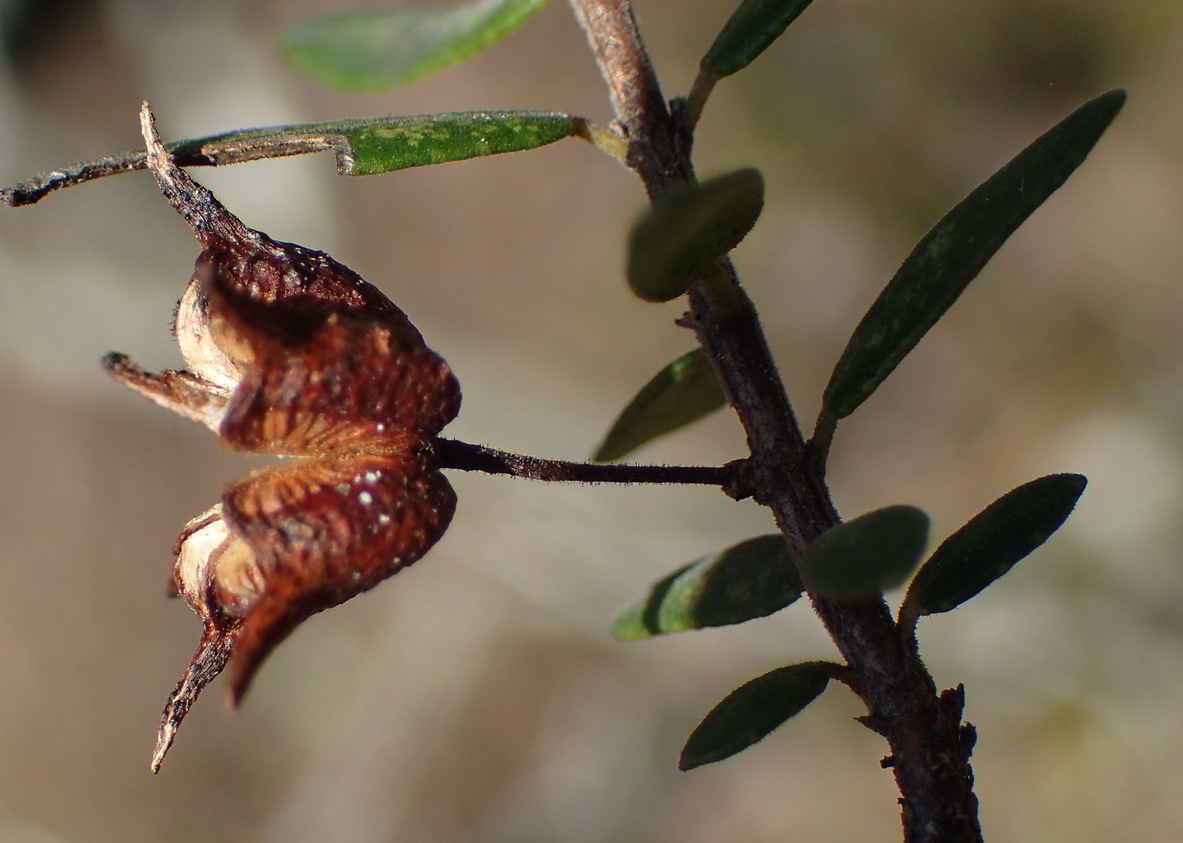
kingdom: Plantae
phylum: Tracheophyta
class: Magnoliopsida
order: Sapindales
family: Rutaceae
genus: Agathosma
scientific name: Agathosma ovata
